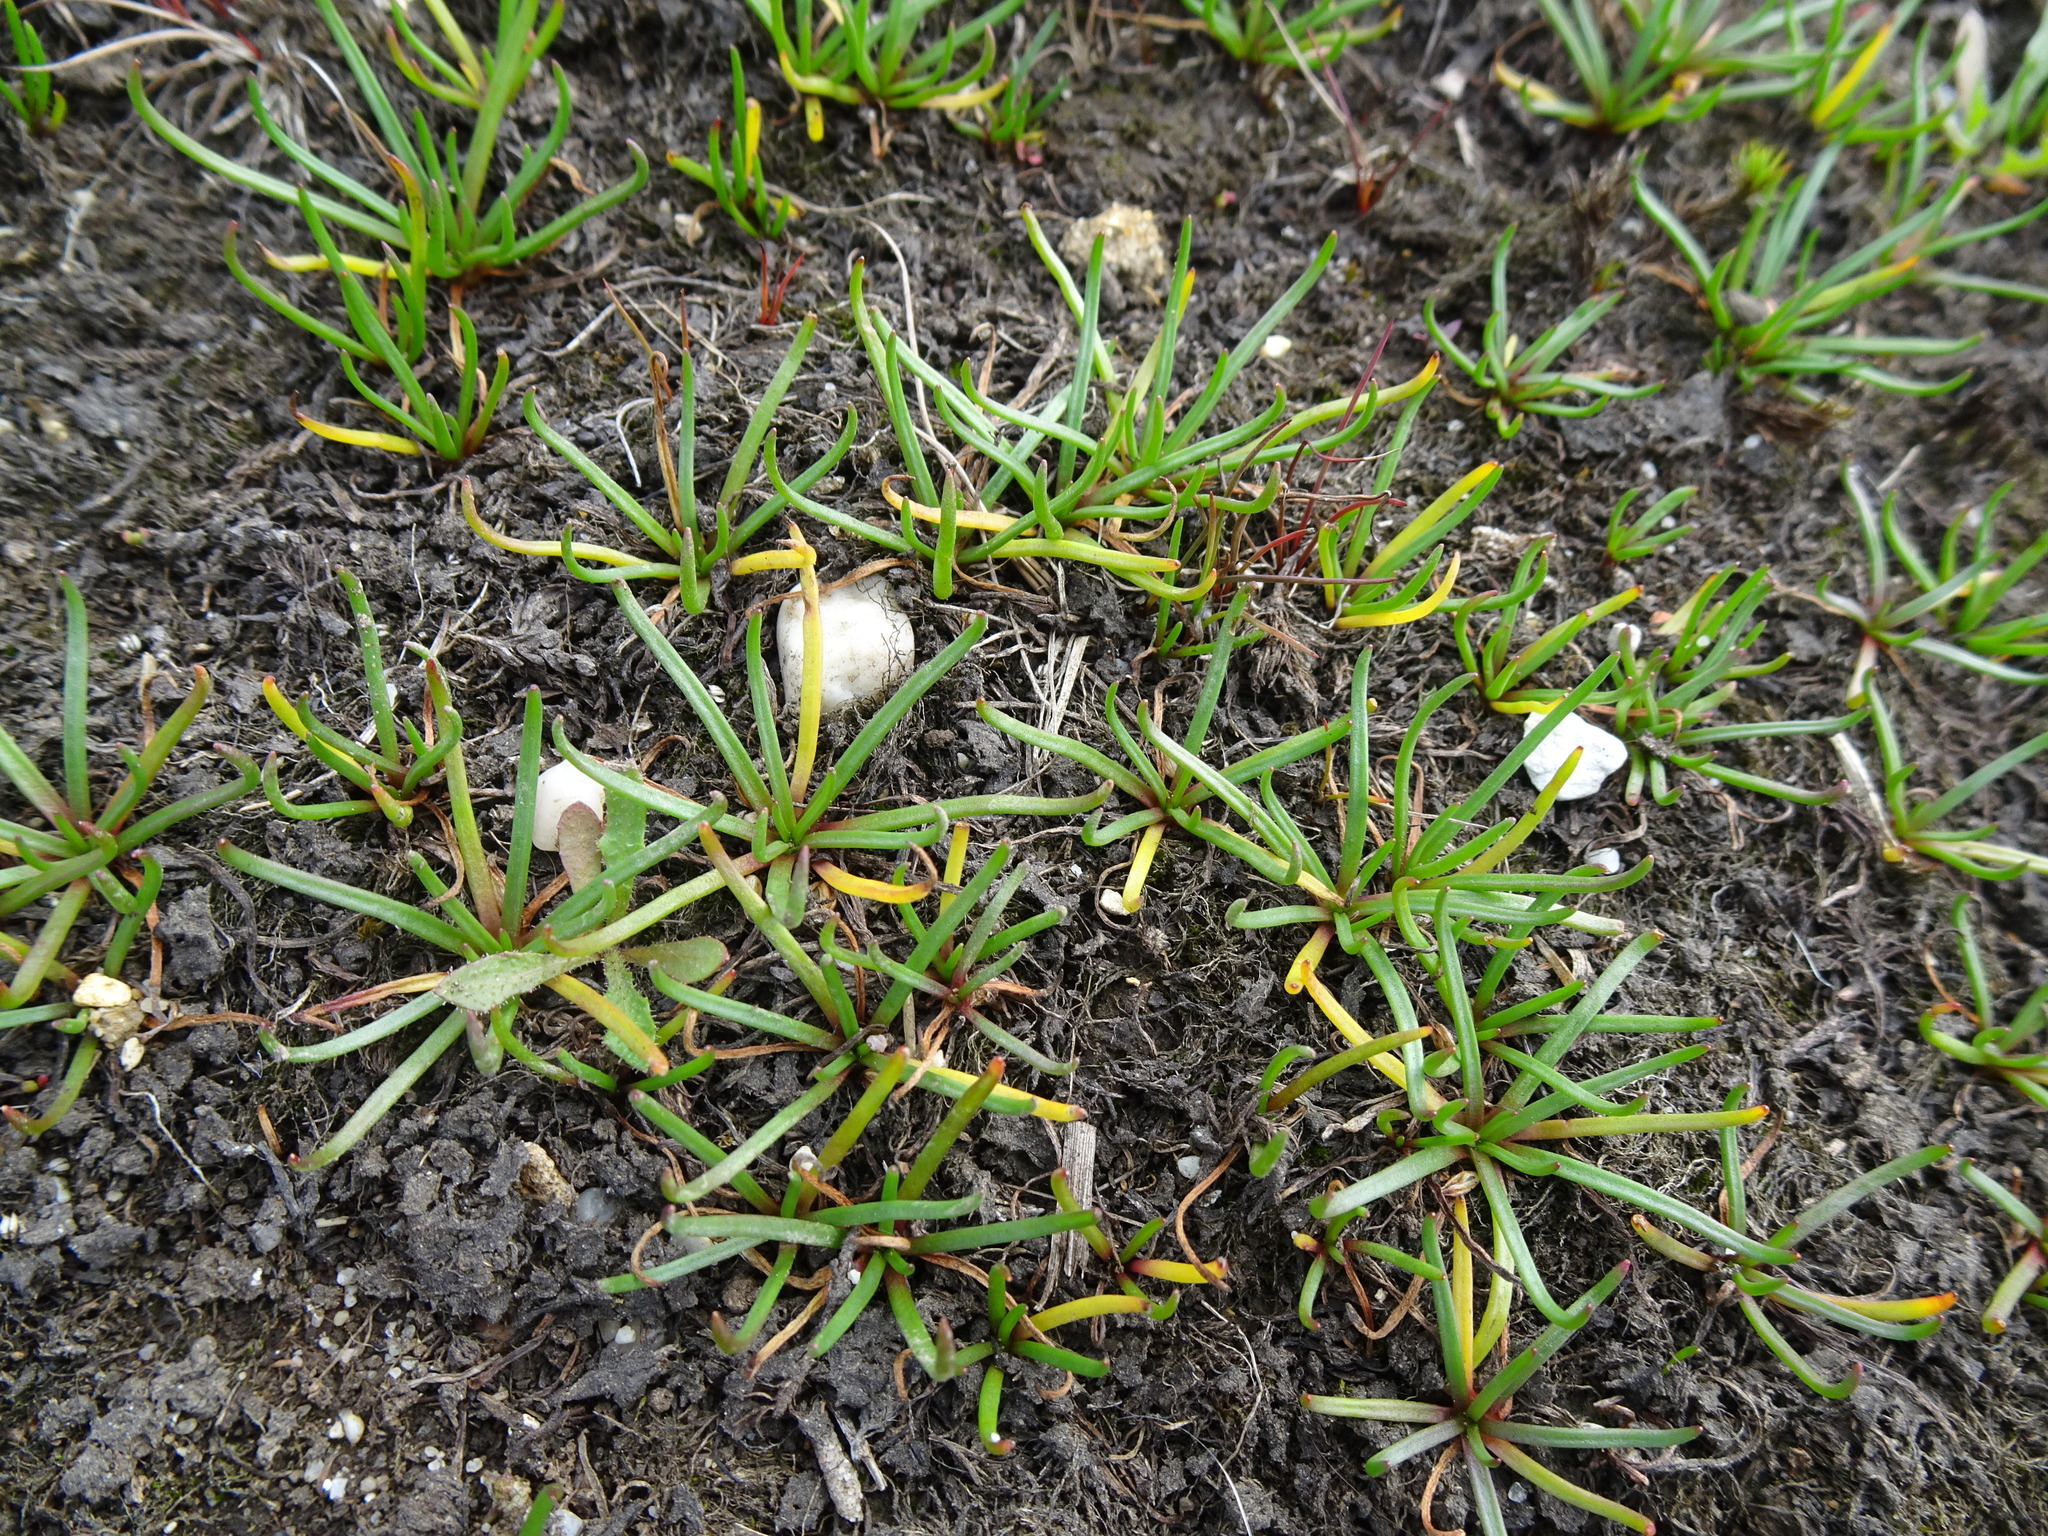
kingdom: Plantae
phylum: Tracheophyta
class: Magnoliopsida
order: Lamiales
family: Plantaginaceae
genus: Littorella
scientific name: Littorella uniflora
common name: Shoreweed
